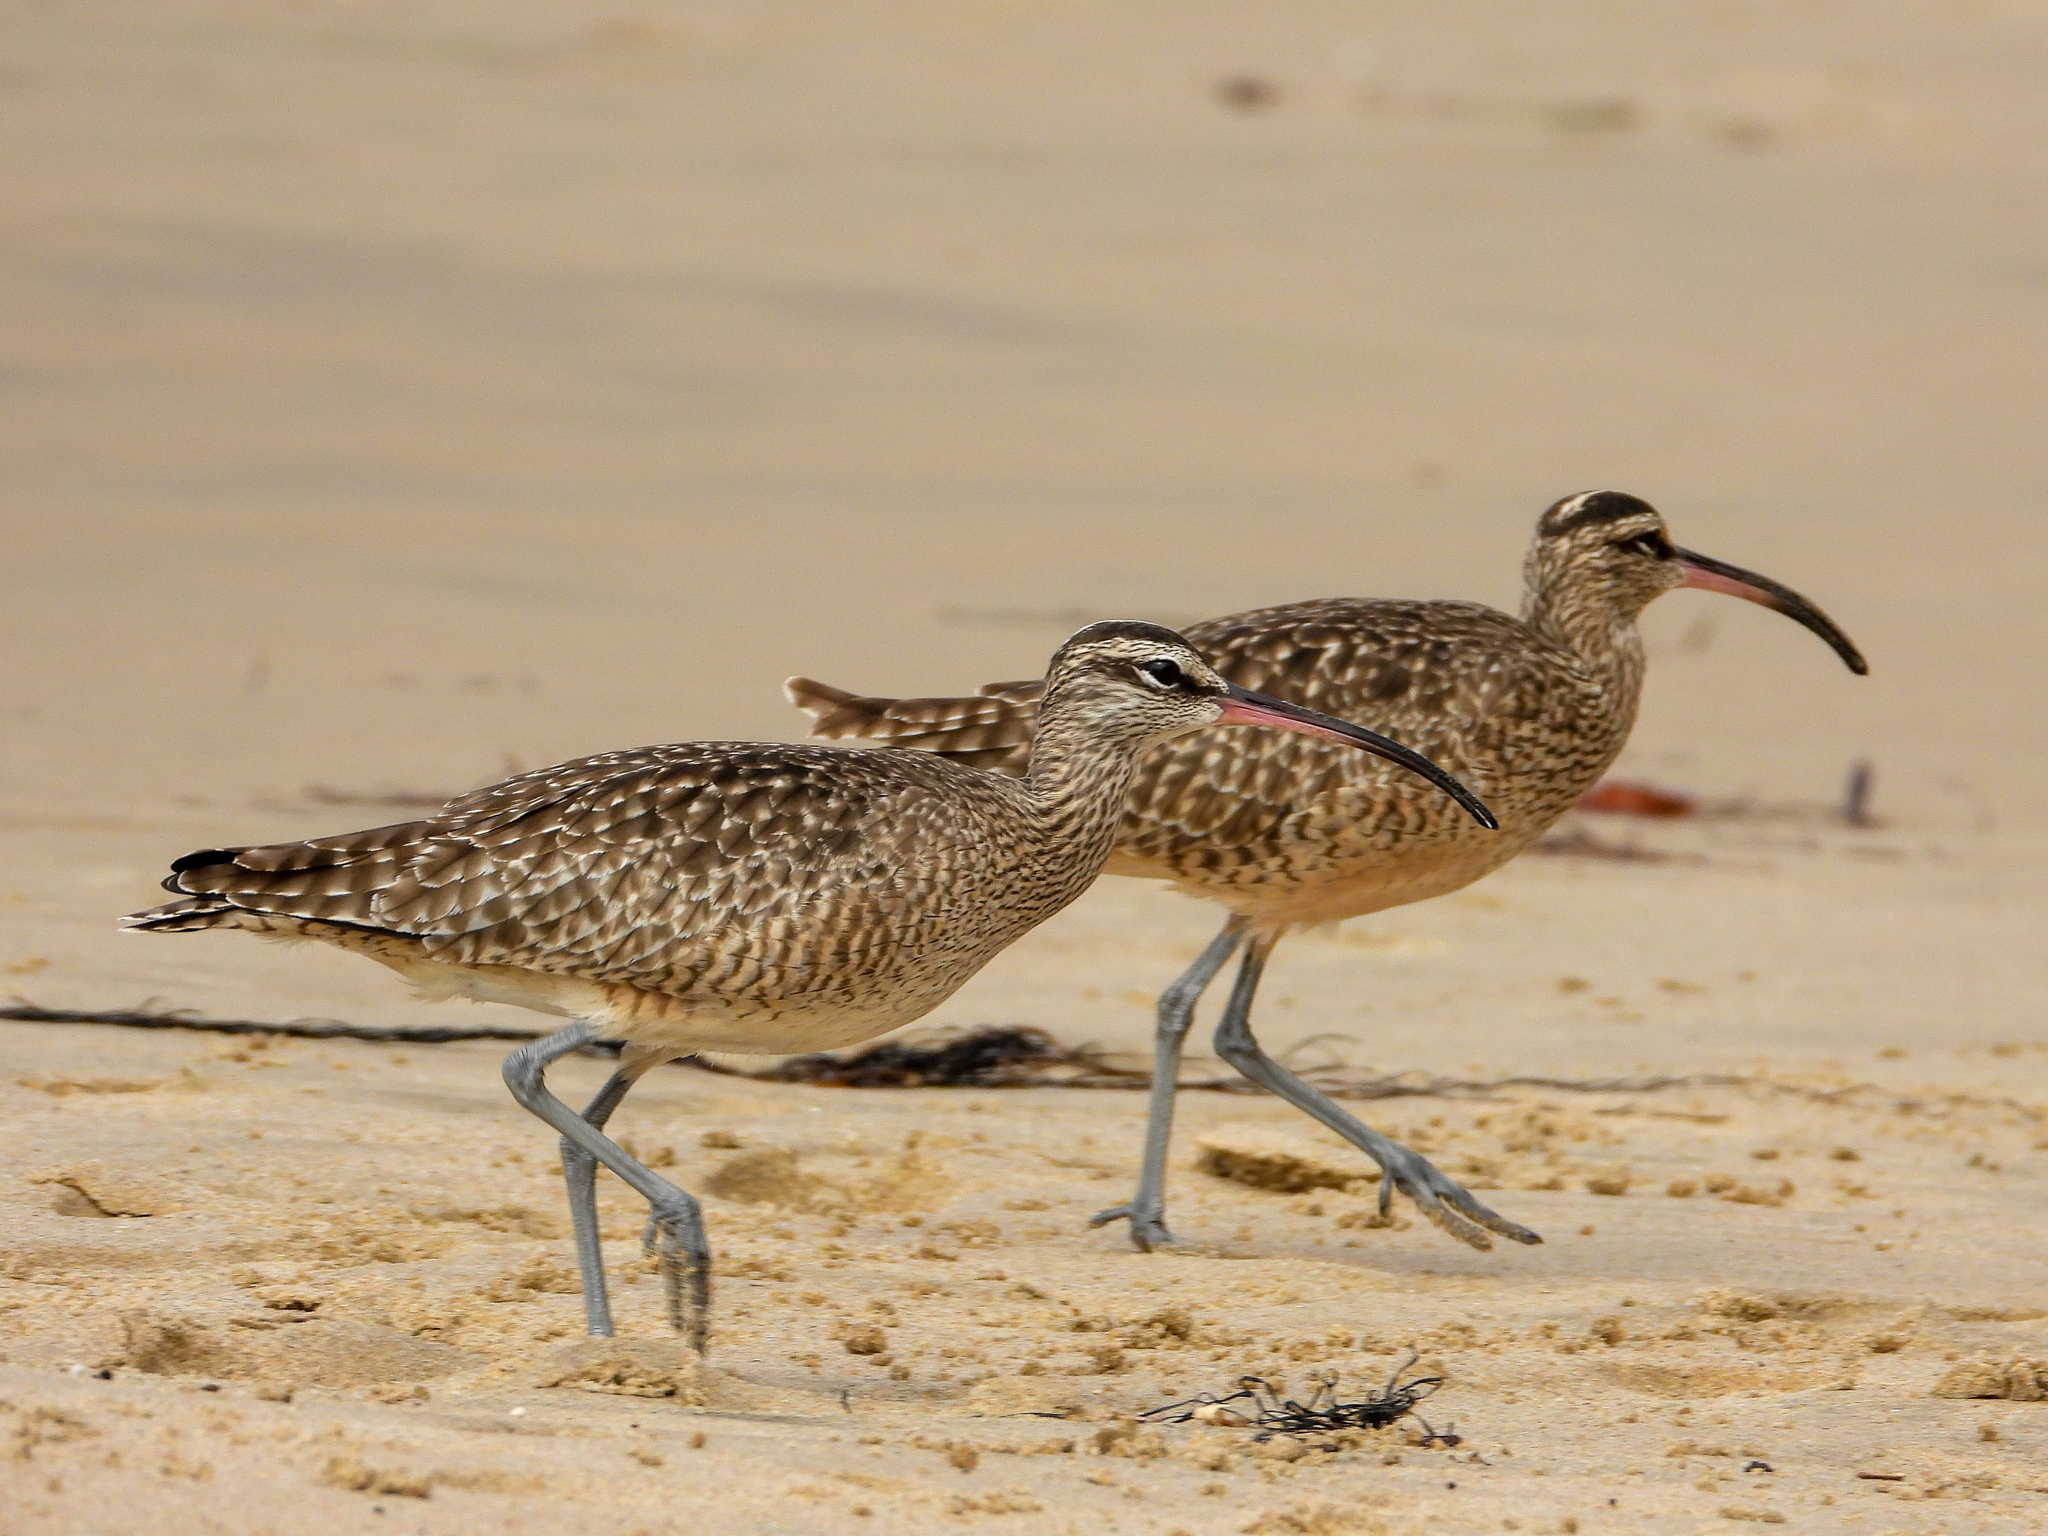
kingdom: Animalia
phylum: Chordata
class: Aves
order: Charadriiformes
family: Scolopacidae
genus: Numenius
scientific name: Numenius phaeopus
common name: Whimbrel
